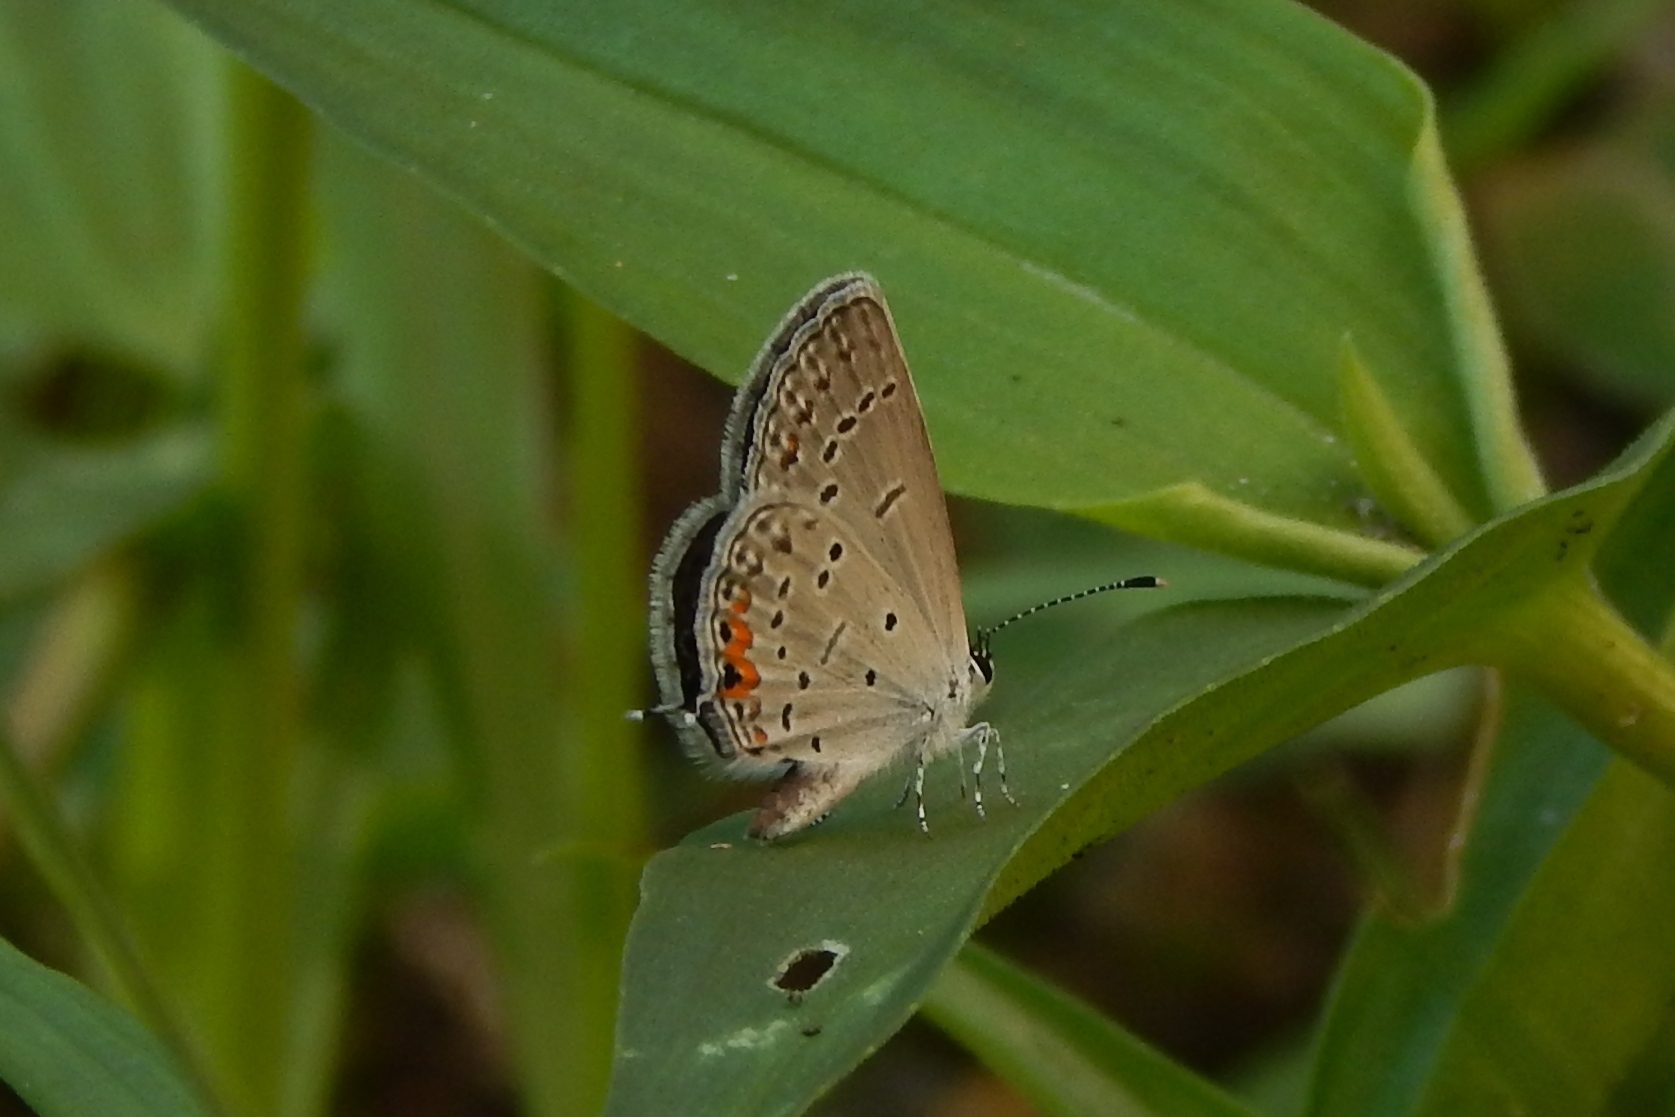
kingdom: Animalia
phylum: Arthropoda
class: Insecta
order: Lepidoptera
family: Lycaenidae
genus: Elkalyce
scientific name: Elkalyce comyntas
